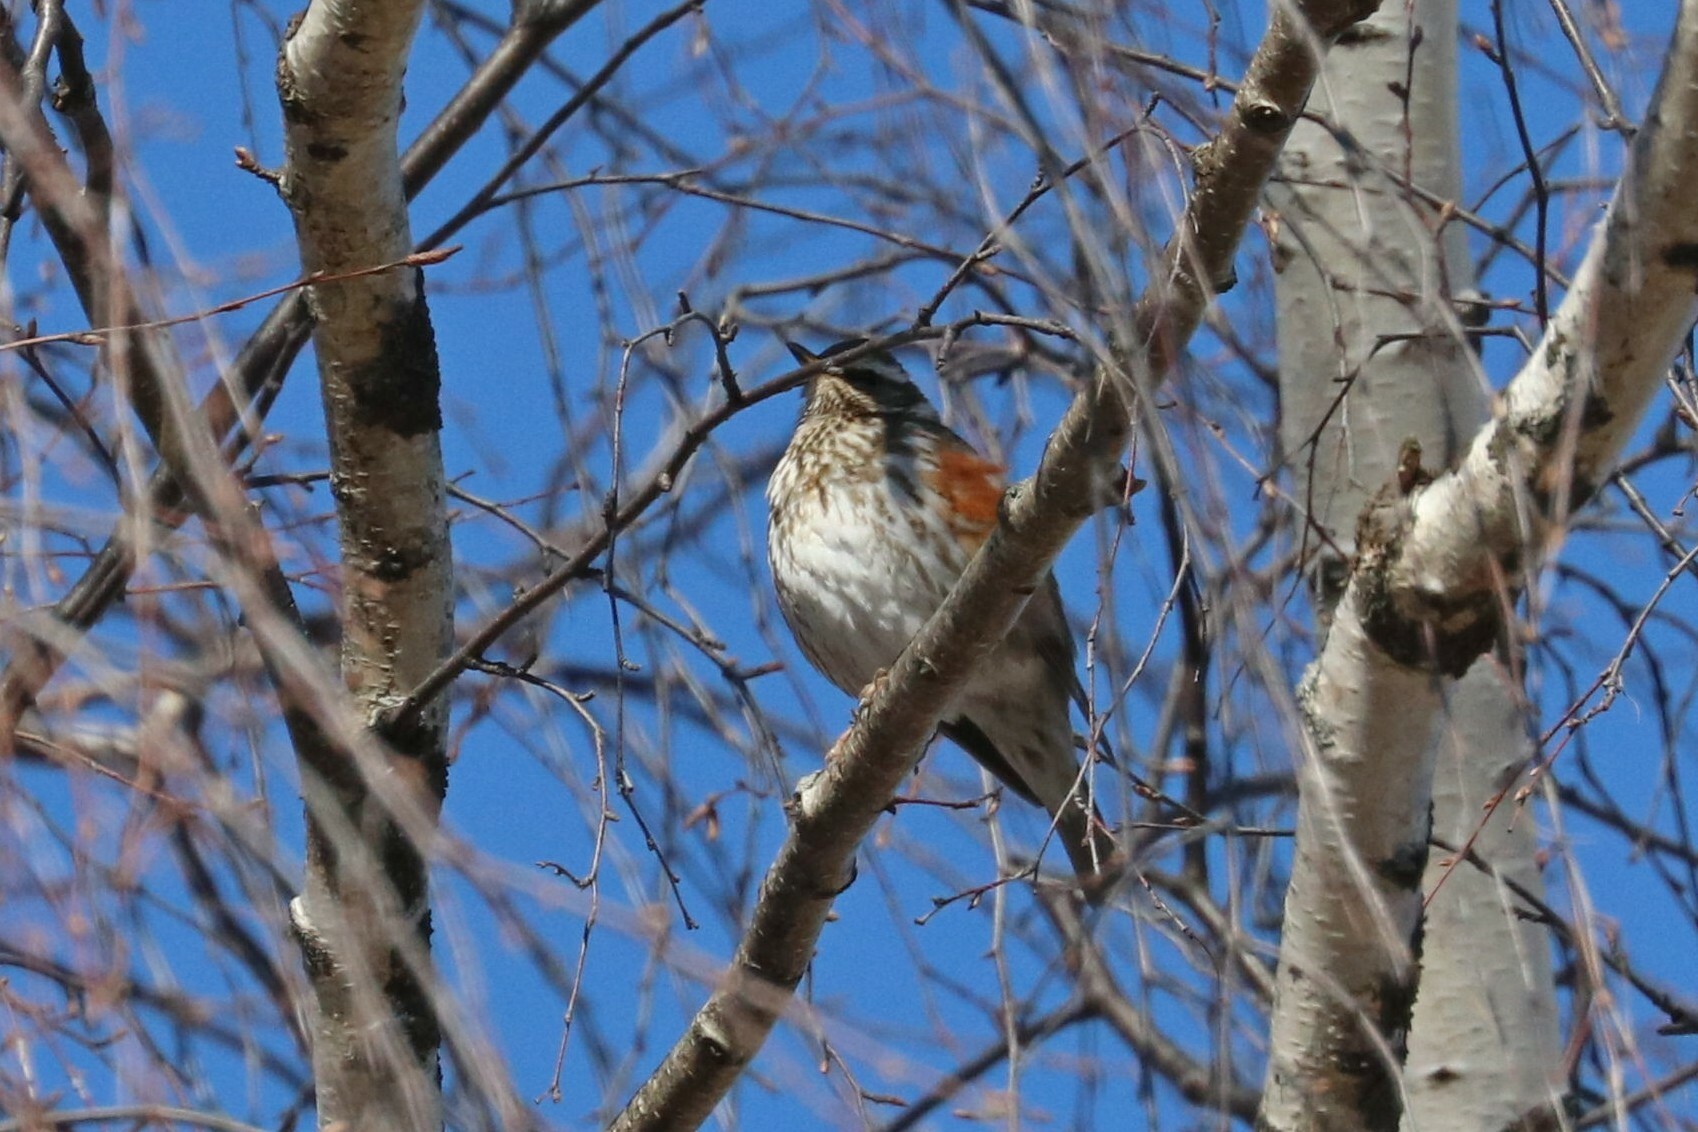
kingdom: Animalia
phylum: Chordata
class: Aves
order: Passeriformes
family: Turdidae
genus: Turdus
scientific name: Turdus iliacus
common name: Redwing
